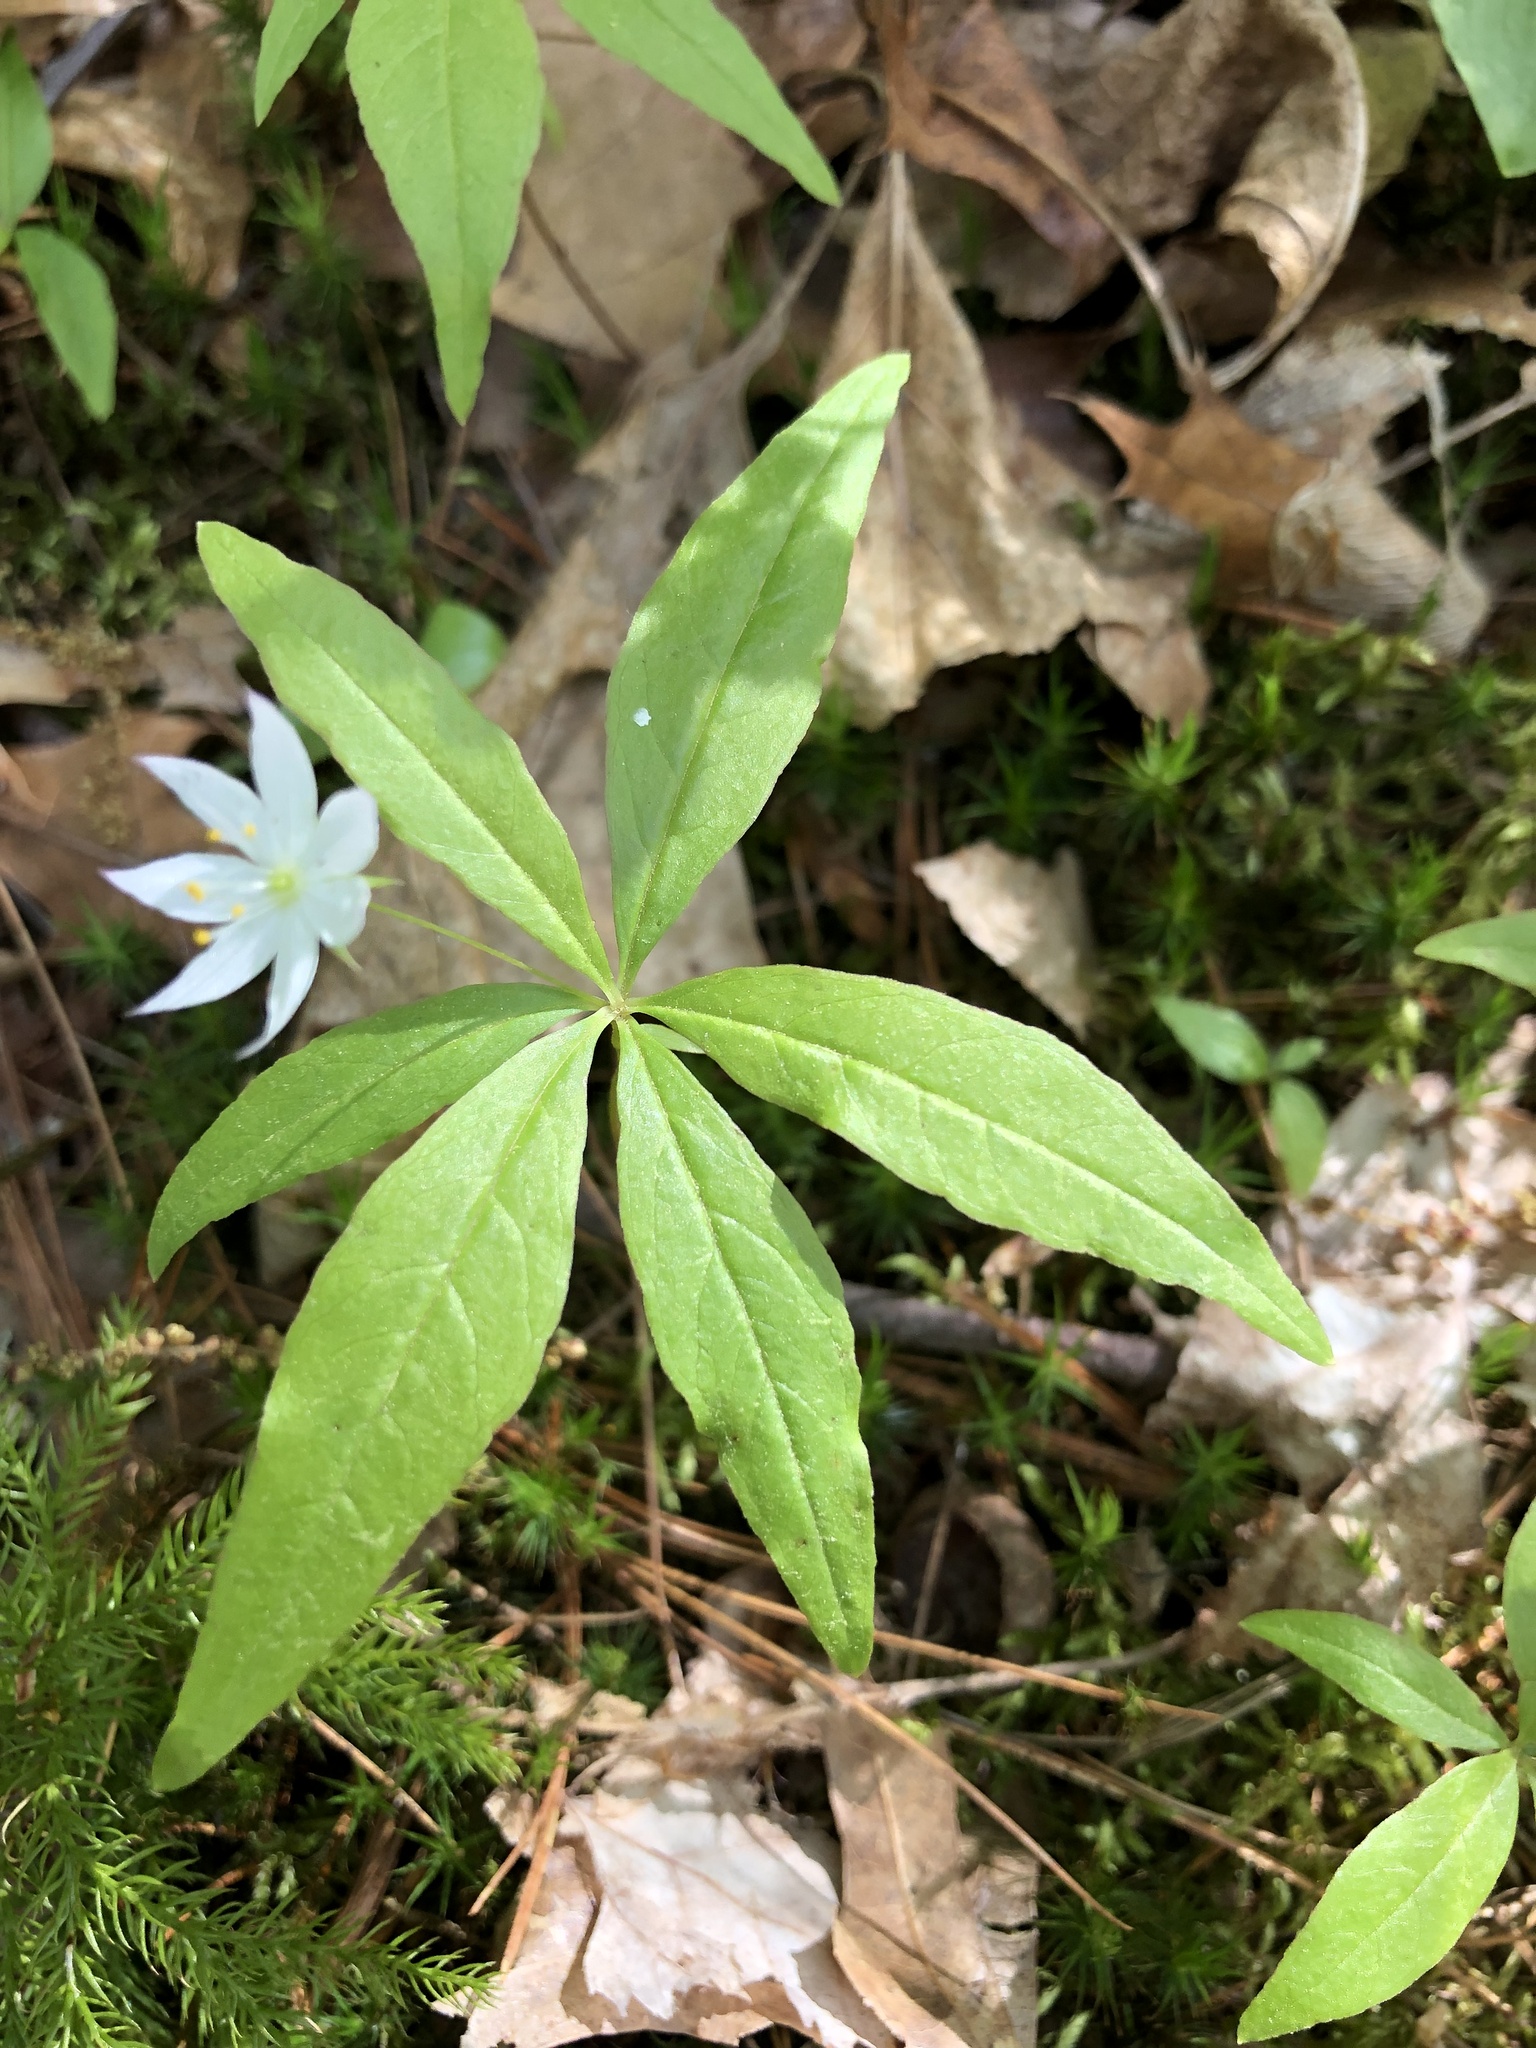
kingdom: Plantae
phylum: Tracheophyta
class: Magnoliopsida
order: Ericales
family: Primulaceae
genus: Lysimachia
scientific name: Lysimachia borealis
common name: American starflower
